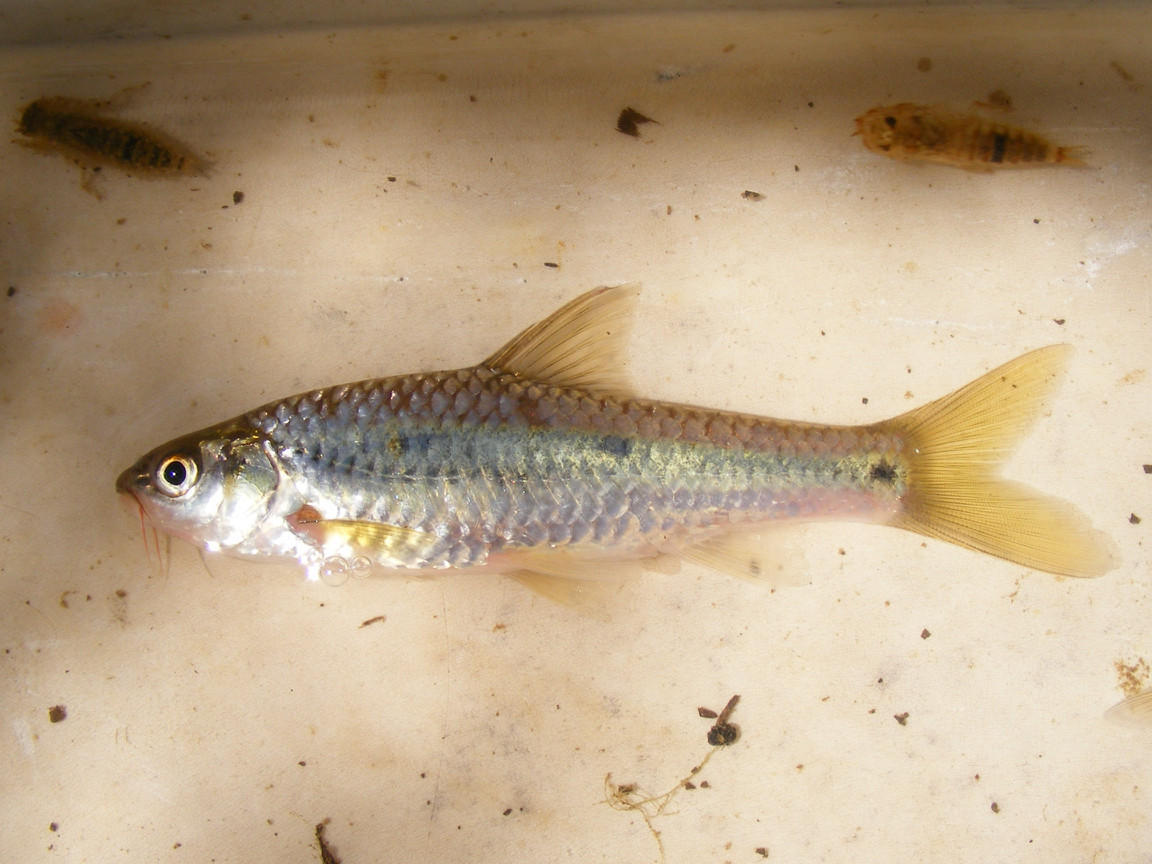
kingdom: Animalia
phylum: Chordata
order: Cypriniformes
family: Cyprinidae
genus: Enteromius
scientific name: Enteromius trimaculatus
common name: Threespot barb
